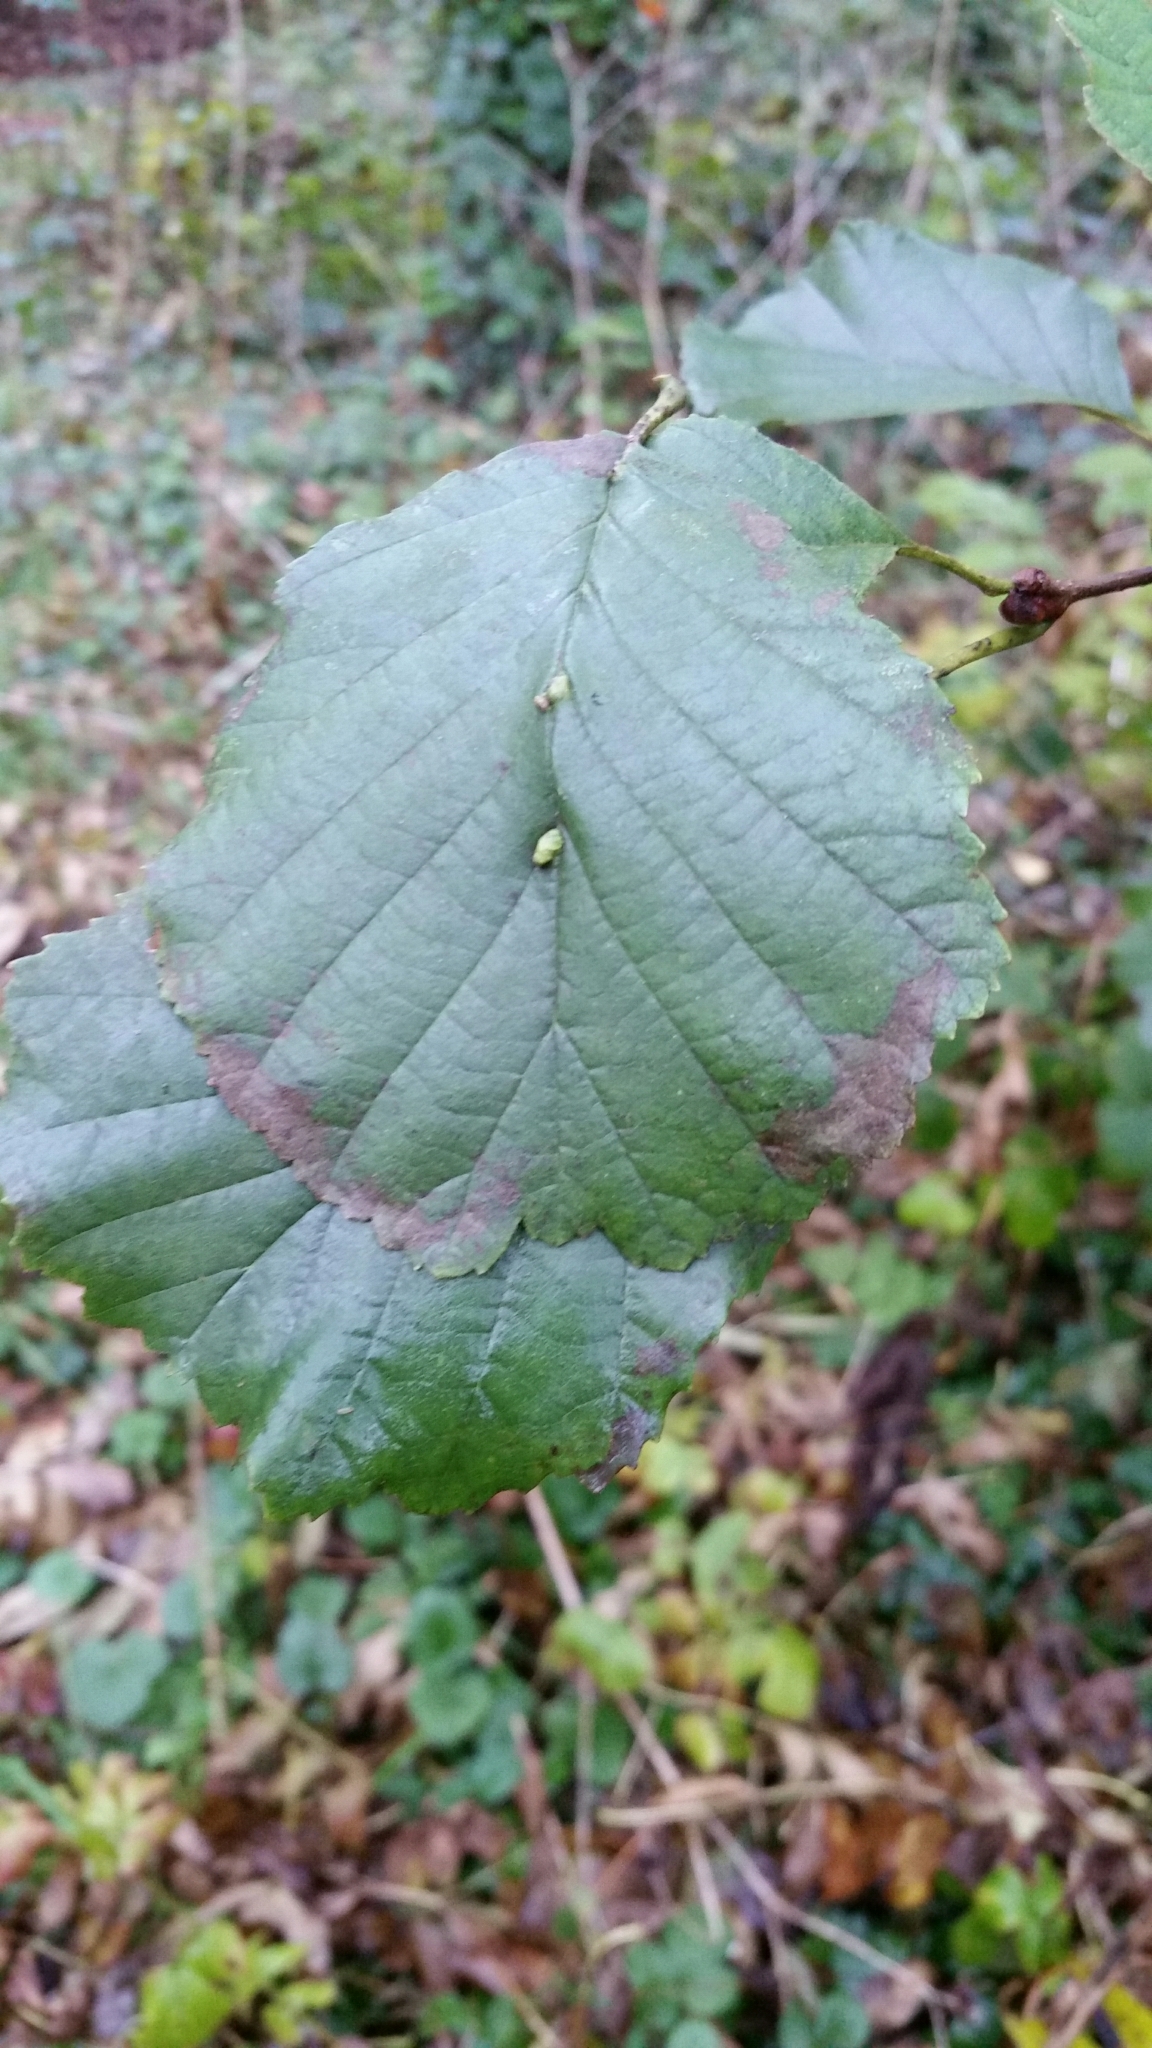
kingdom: Animalia
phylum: Arthropoda
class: Arachnida
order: Trombidiformes
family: Eriophyidae
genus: Eriophyes
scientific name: Eriophyes inangulis
